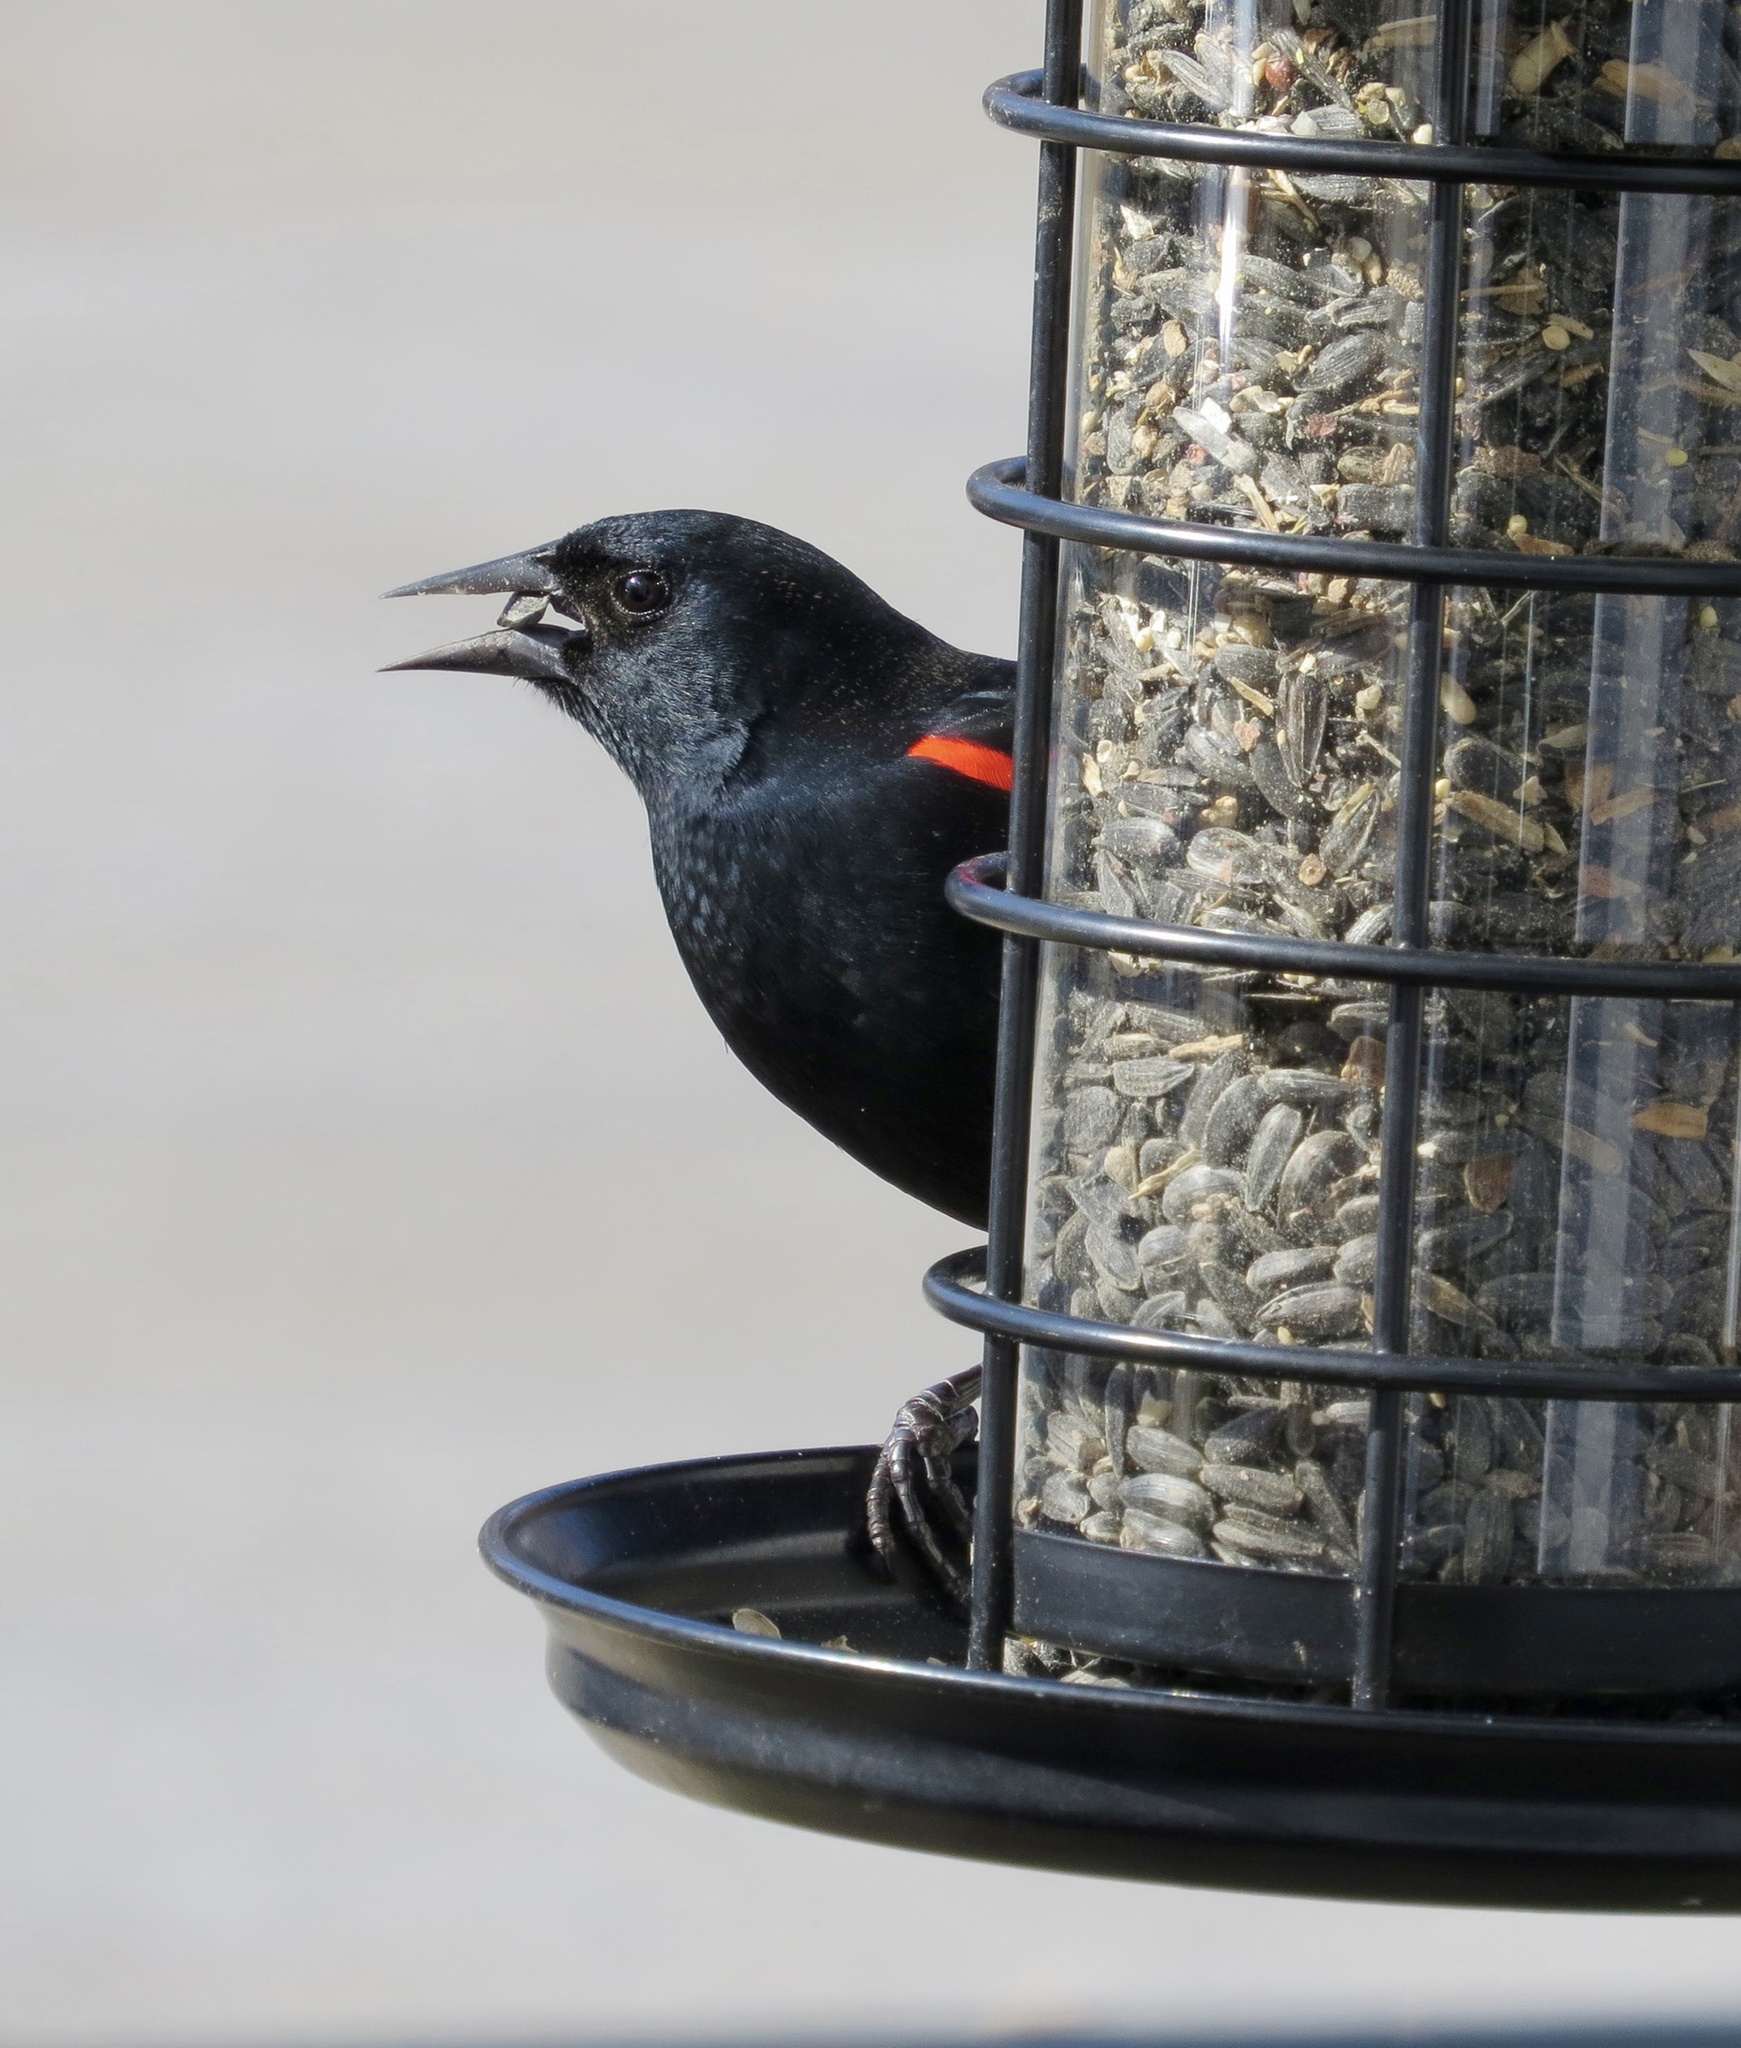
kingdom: Animalia
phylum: Chordata
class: Aves
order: Passeriformes
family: Icteridae
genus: Agelaius
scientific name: Agelaius phoeniceus
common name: Red-winged blackbird
